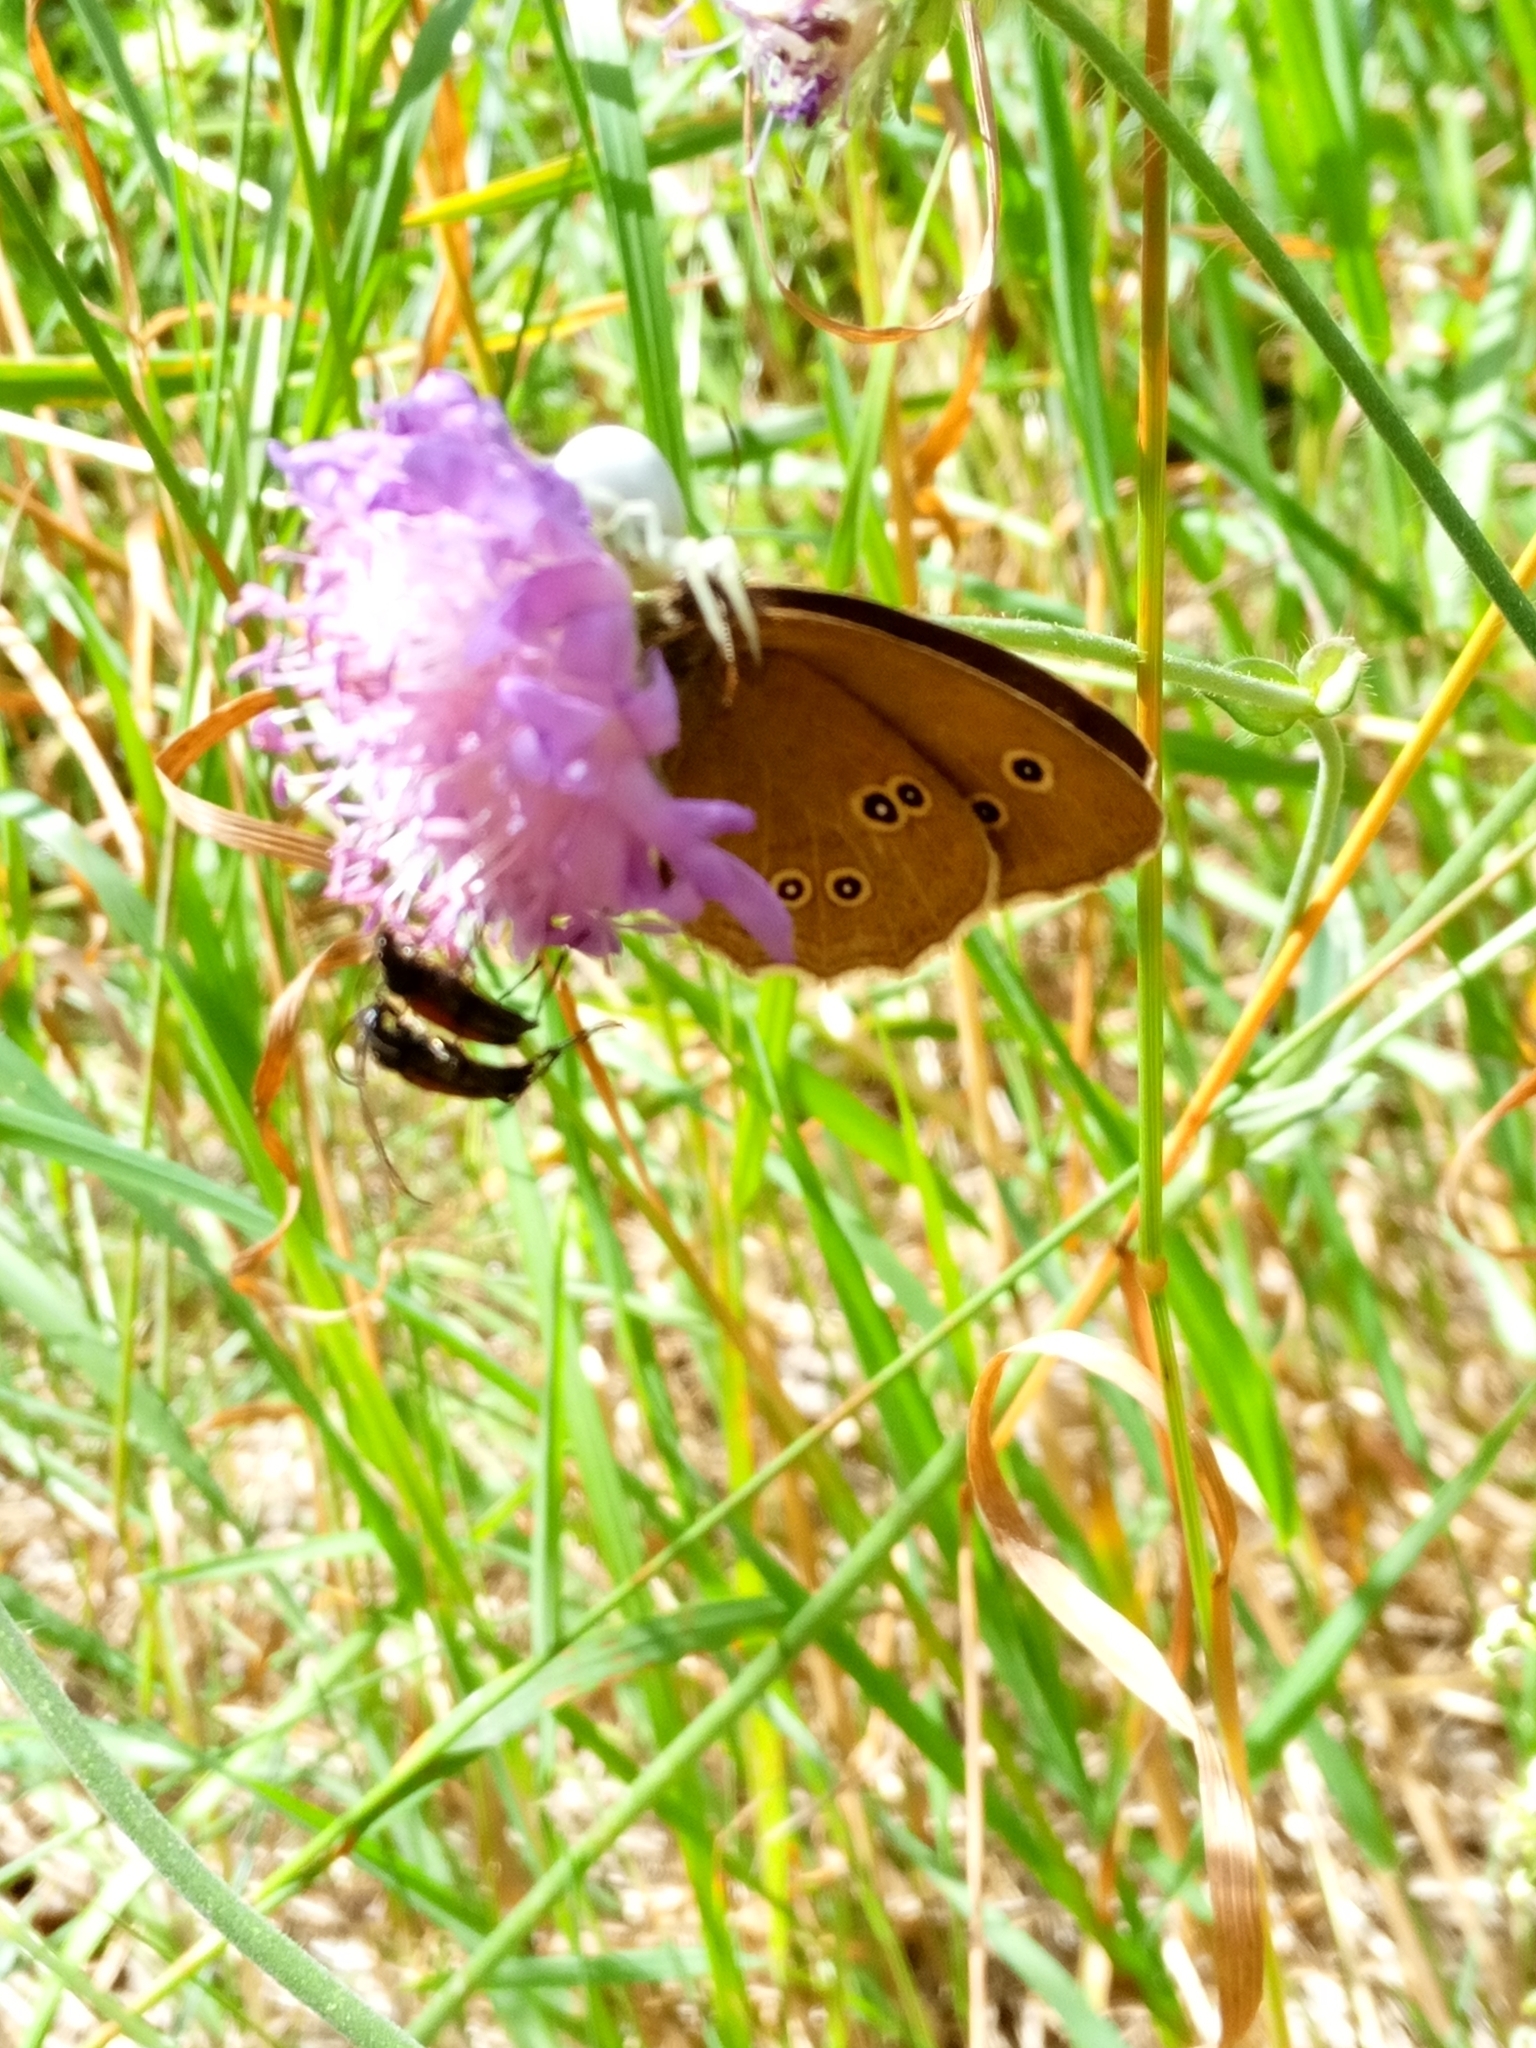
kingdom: Animalia
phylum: Arthropoda
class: Insecta
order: Lepidoptera
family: Nymphalidae
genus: Aphantopus
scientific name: Aphantopus hyperantus
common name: Ringlet
